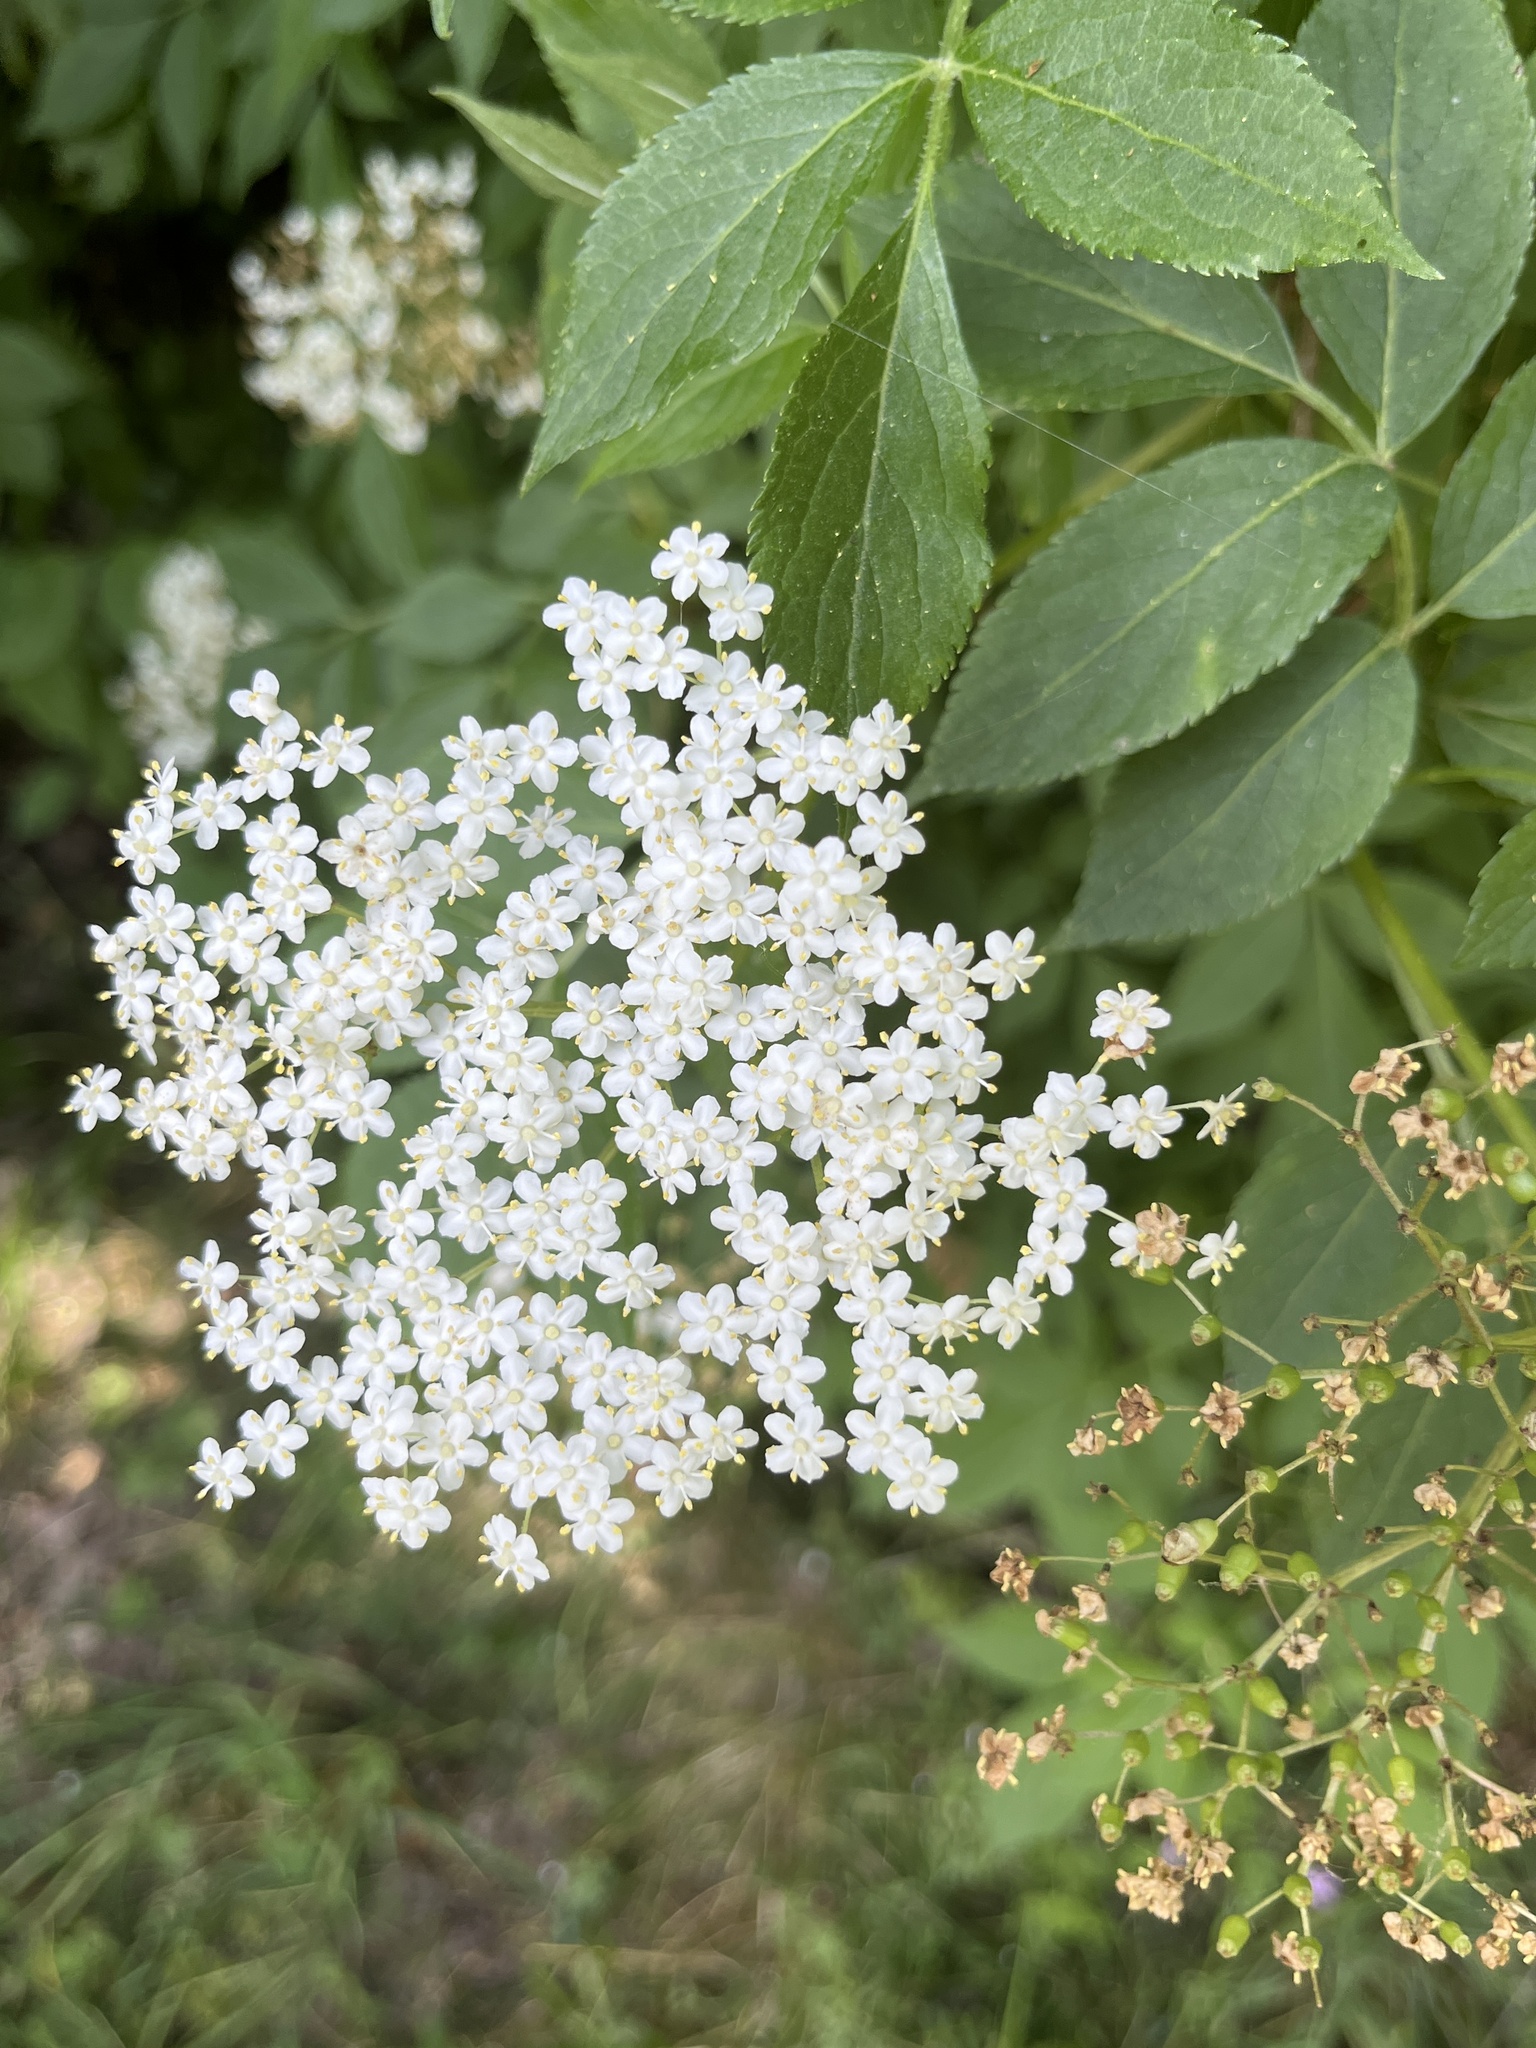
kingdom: Plantae
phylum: Tracheophyta
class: Magnoliopsida
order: Dipsacales
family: Viburnaceae
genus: Sambucus
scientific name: Sambucus nigra
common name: Elder
